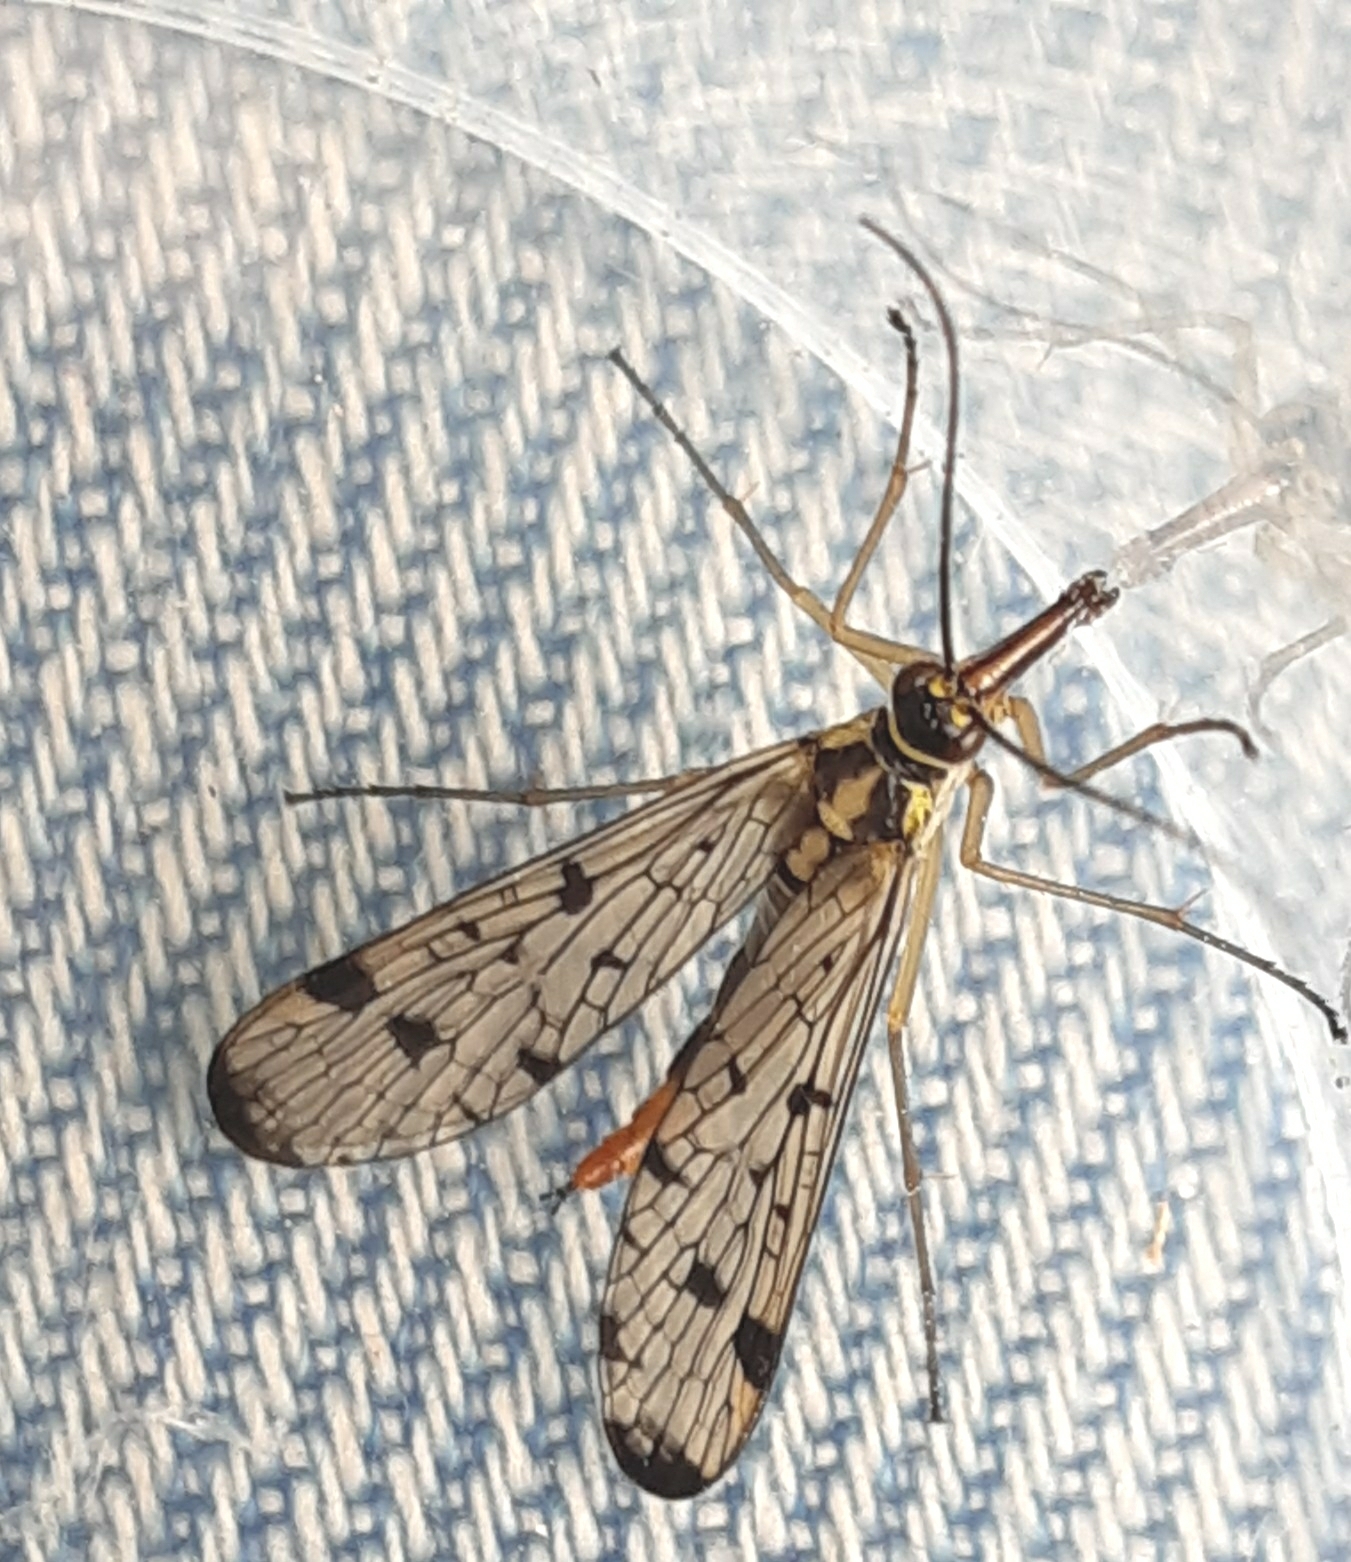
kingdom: Animalia
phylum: Arthropoda
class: Insecta
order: Mecoptera
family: Panorpidae
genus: Panorpa
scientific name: Panorpa germanica
